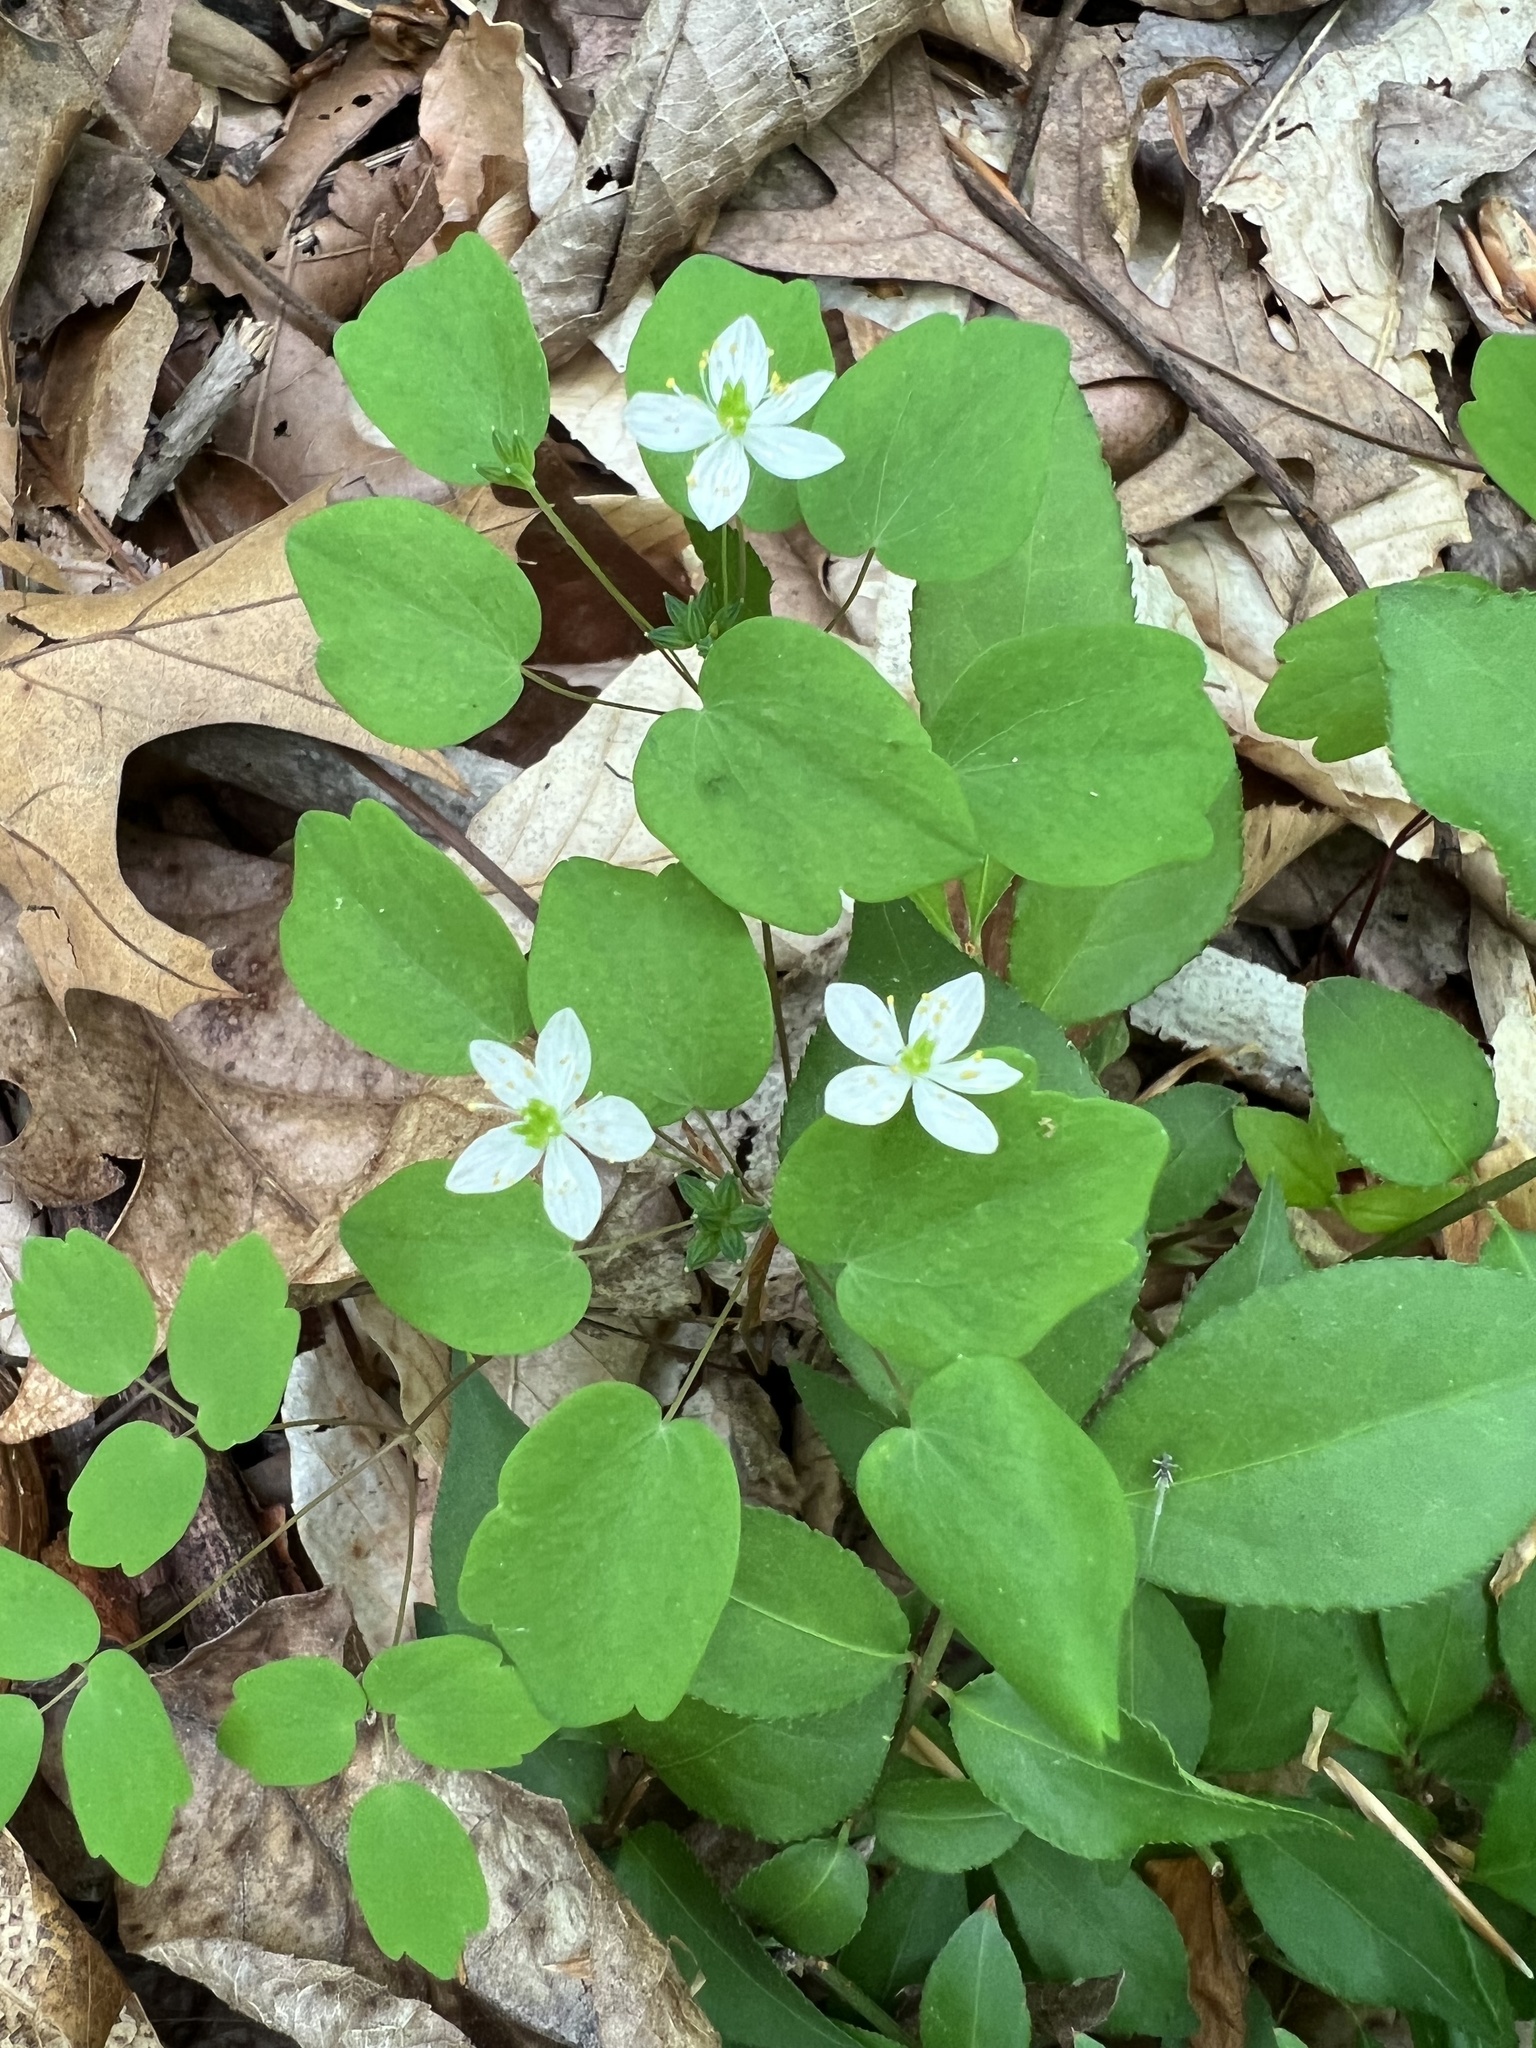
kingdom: Plantae
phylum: Tracheophyta
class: Magnoliopsida
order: Ranunculales
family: Ranunculaceae
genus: Thalictrum
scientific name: Thalictrum thalictroides
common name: Rue-anemone
